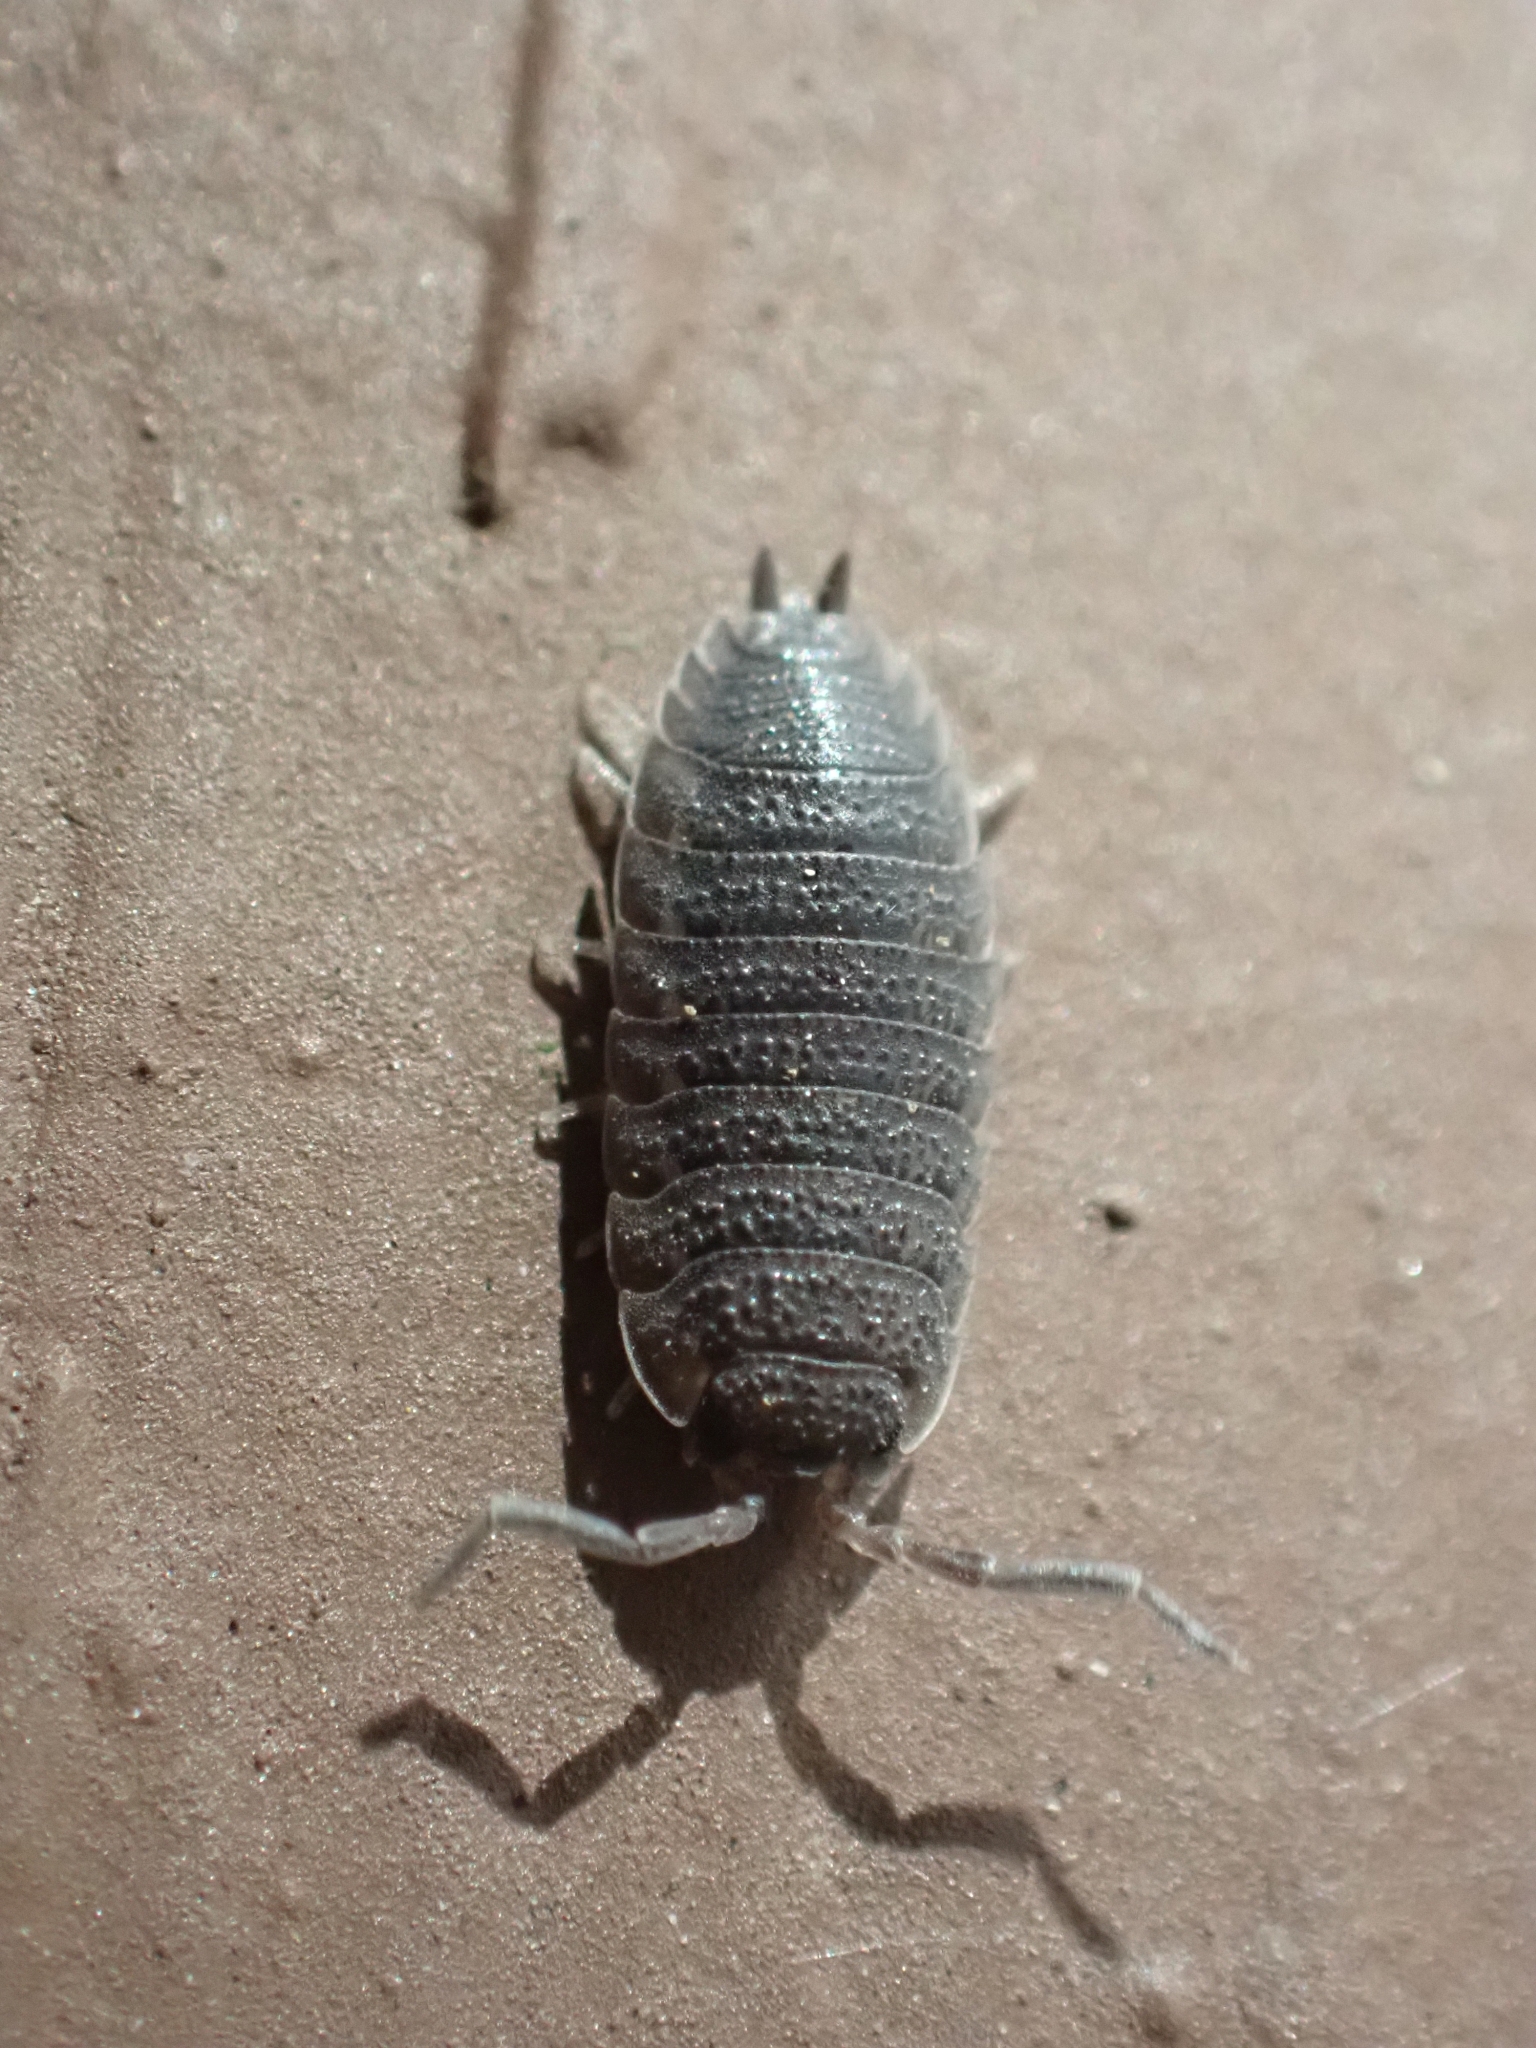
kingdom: Animalia
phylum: Arthropoda
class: Malacostraca
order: Isopoda
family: Porcellionidae
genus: Porcellio
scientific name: Porcellio scaber
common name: Common rough woodlouse
